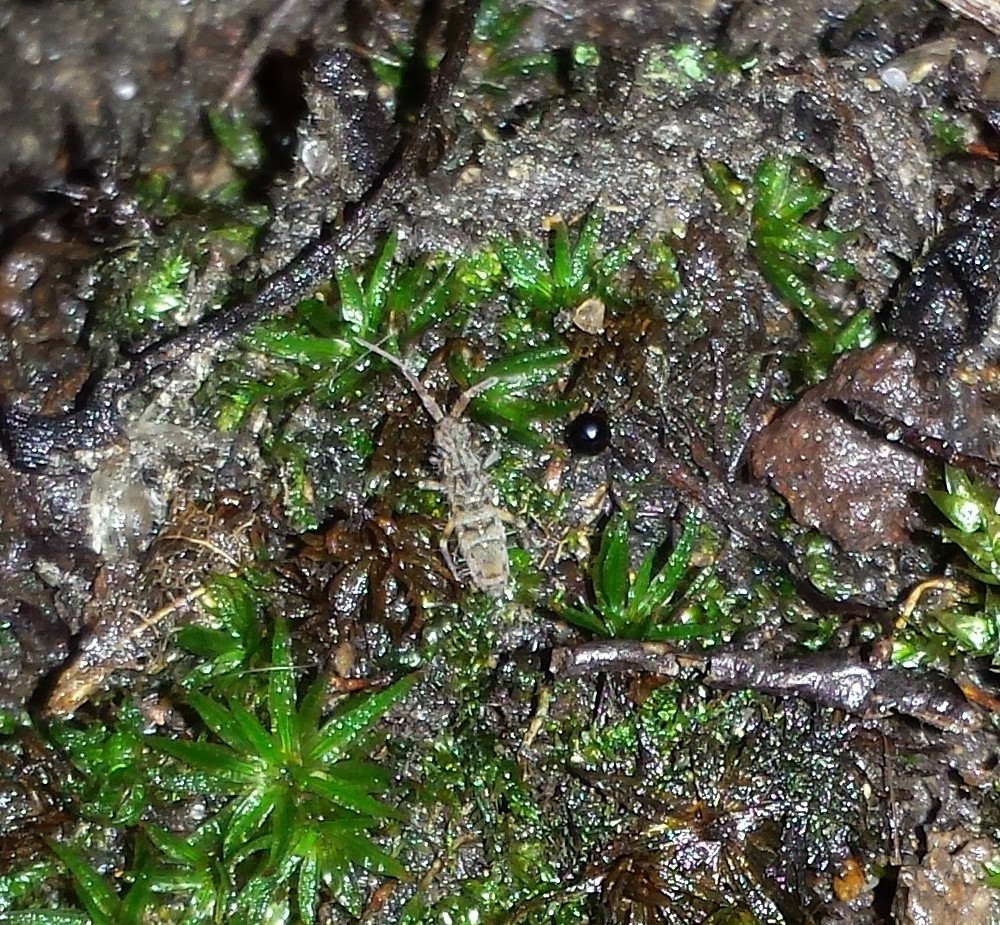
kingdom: Animalia
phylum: Arthropoda
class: Collembola
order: Entomobryomorpha
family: Orchesellidae
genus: Orchesella
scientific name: Orchesella villosa
